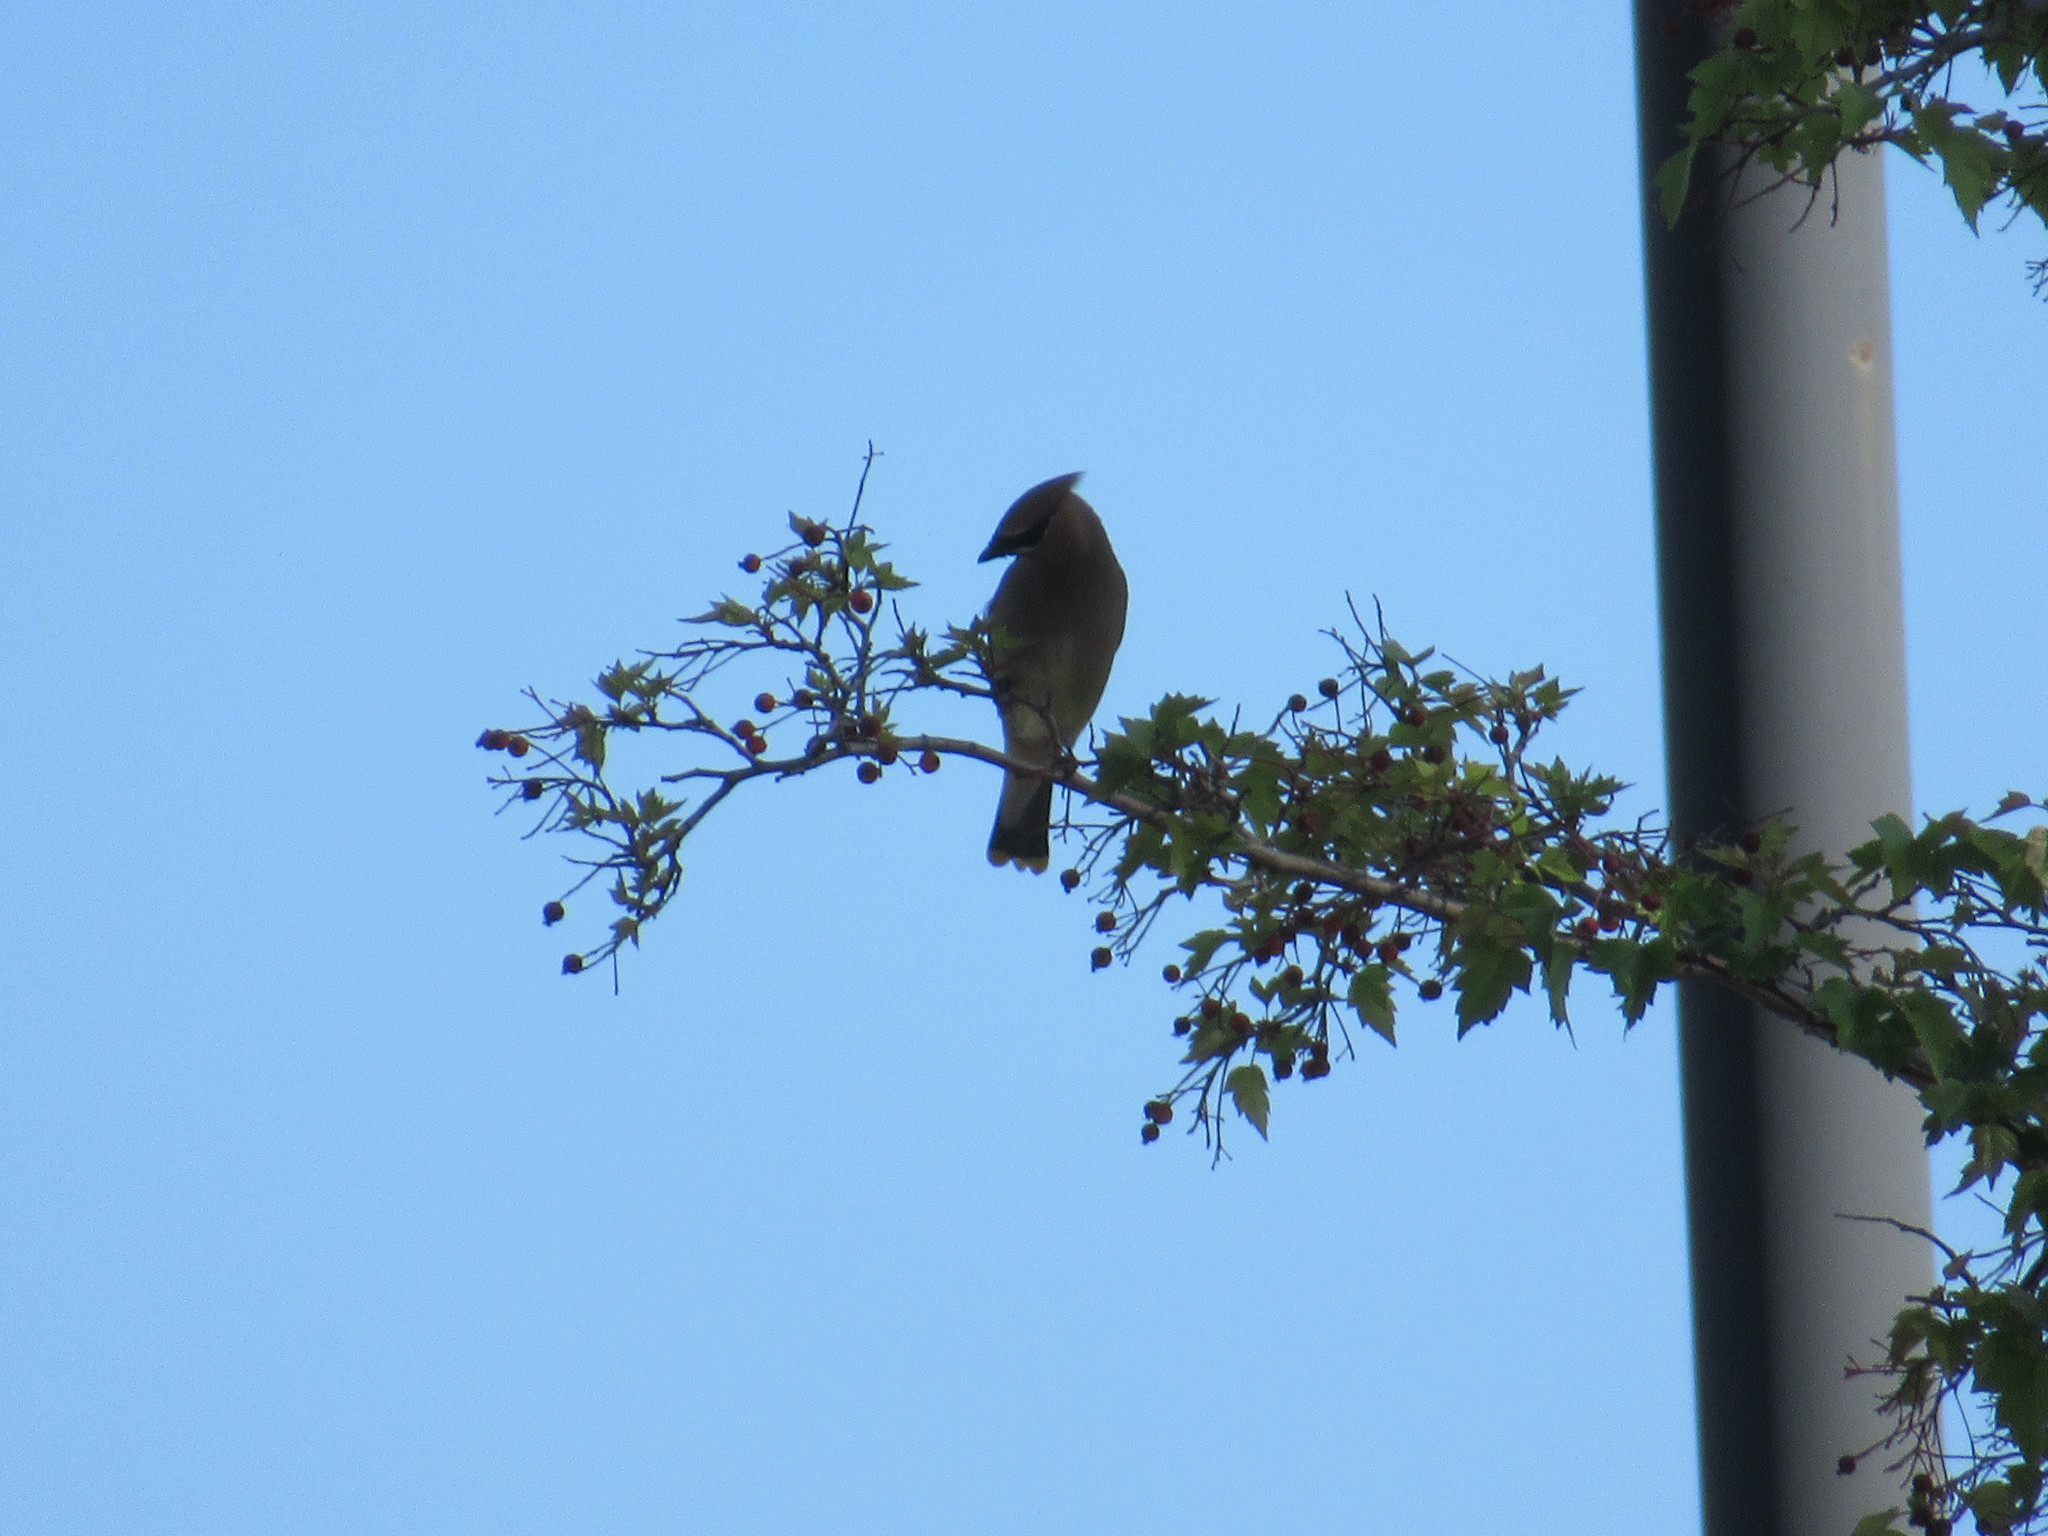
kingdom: Animalia
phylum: Chordata
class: Aves
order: Passeriformes
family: Bombycillidae
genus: Bombycilla
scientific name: Bombycilla cedrorum
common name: Cedar waxwing
